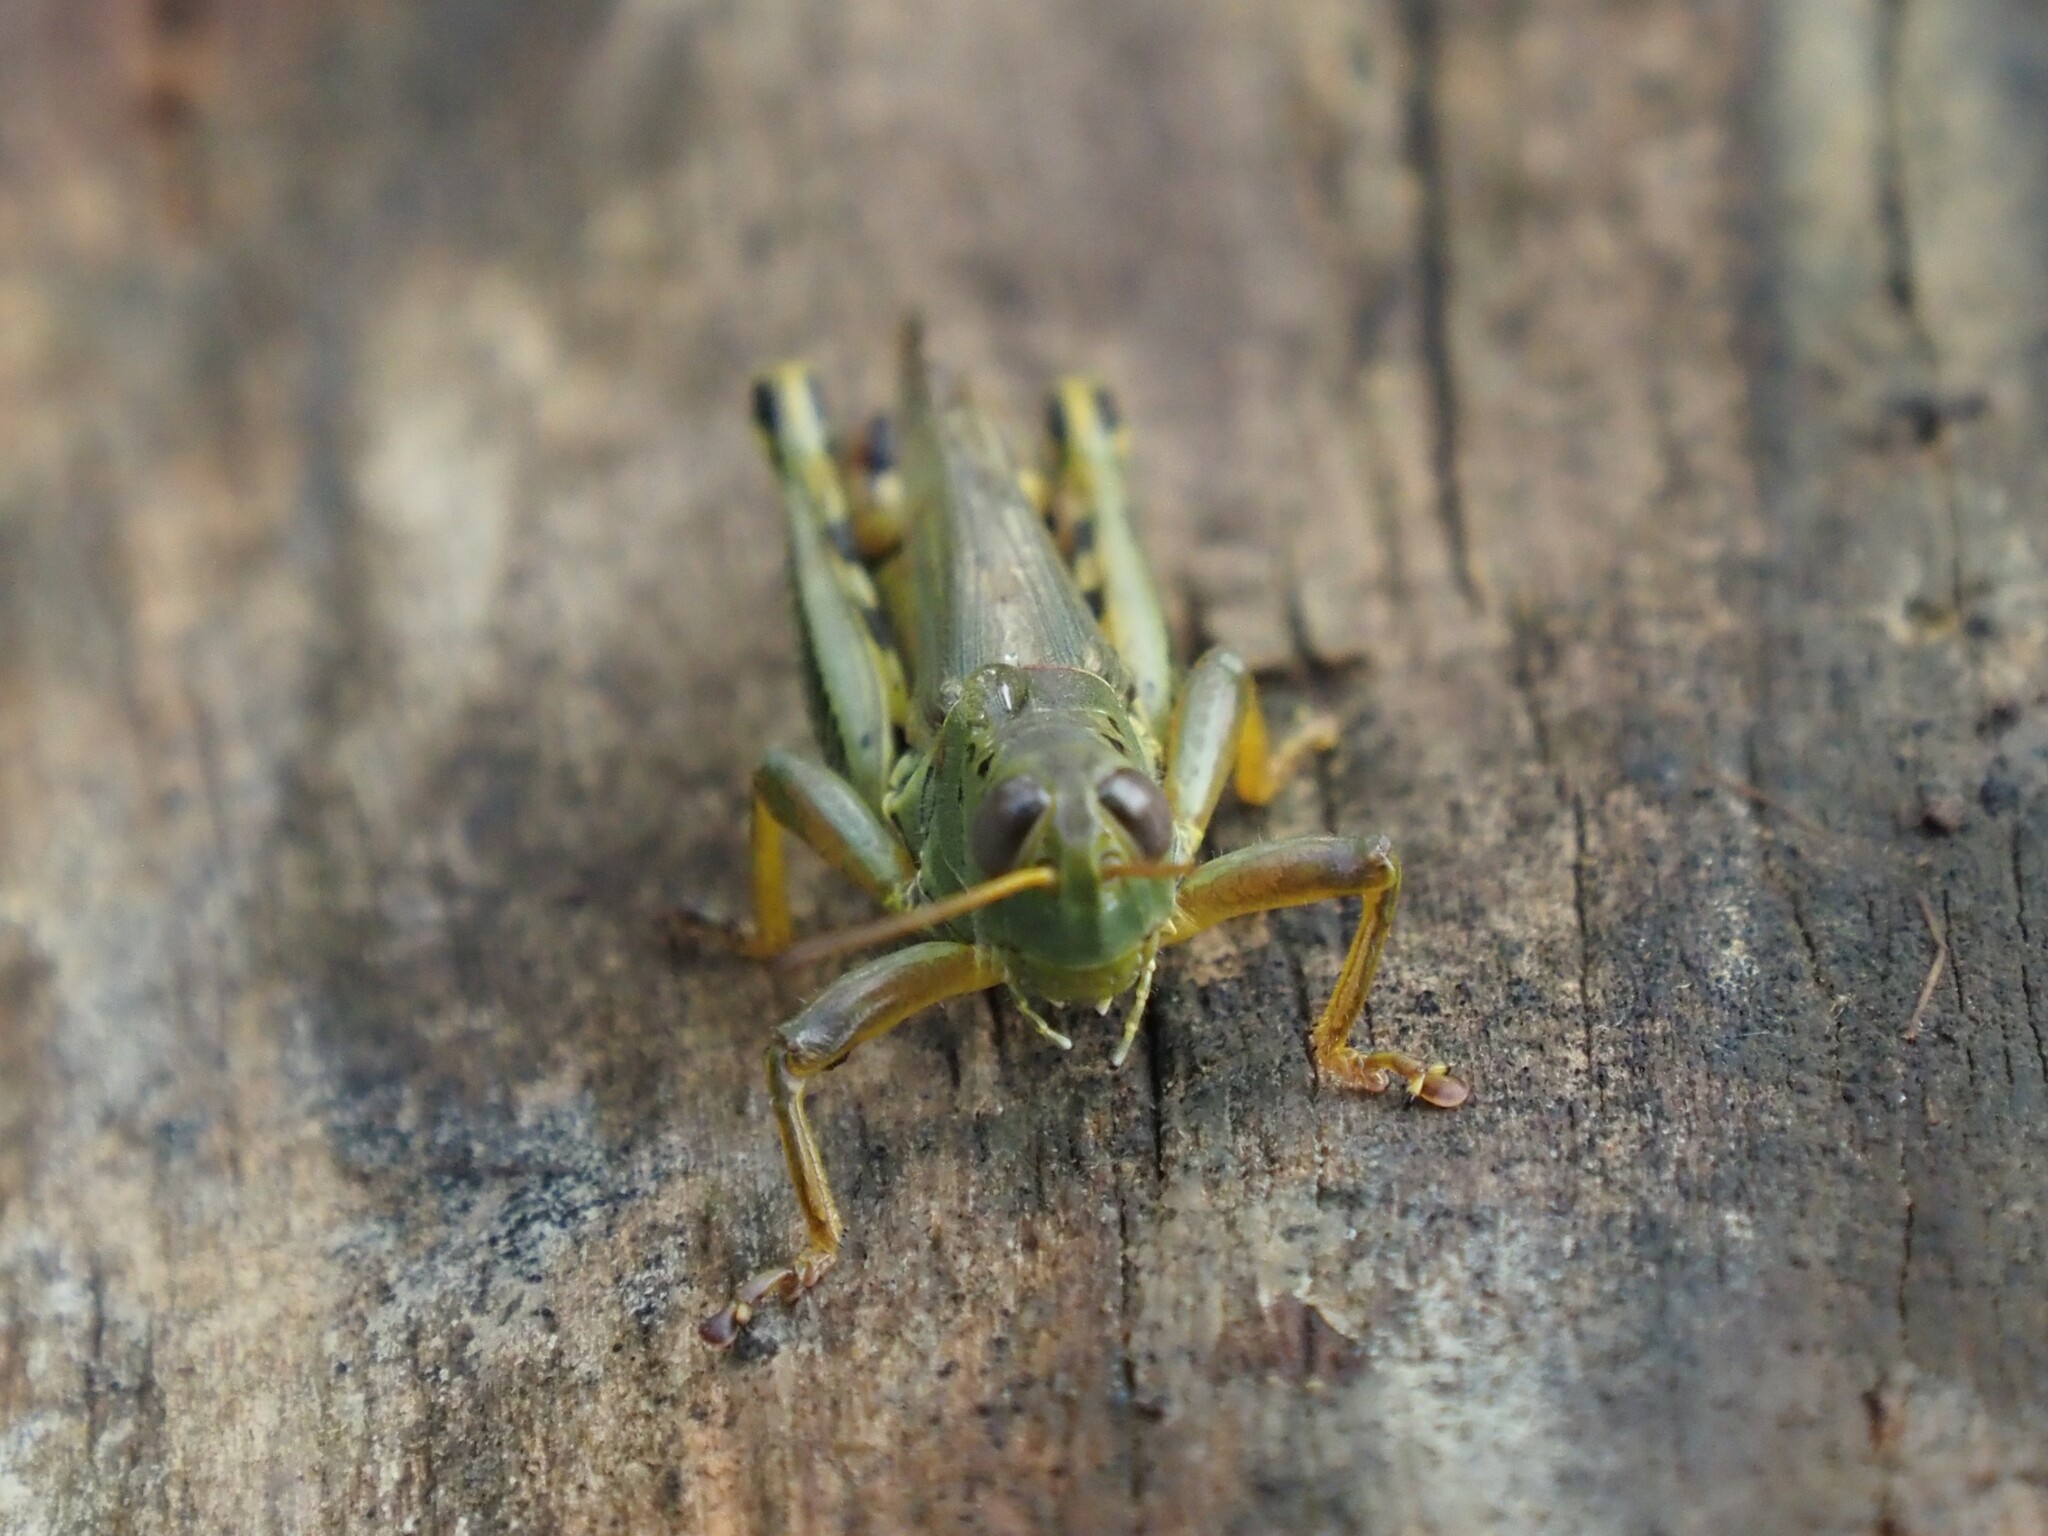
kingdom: Animalia
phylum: Arthropoda
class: Insecta
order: Orthoptera
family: Acrididae
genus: Melanoplus
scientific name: Melanoplus differentialis
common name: Differential grasshopper
